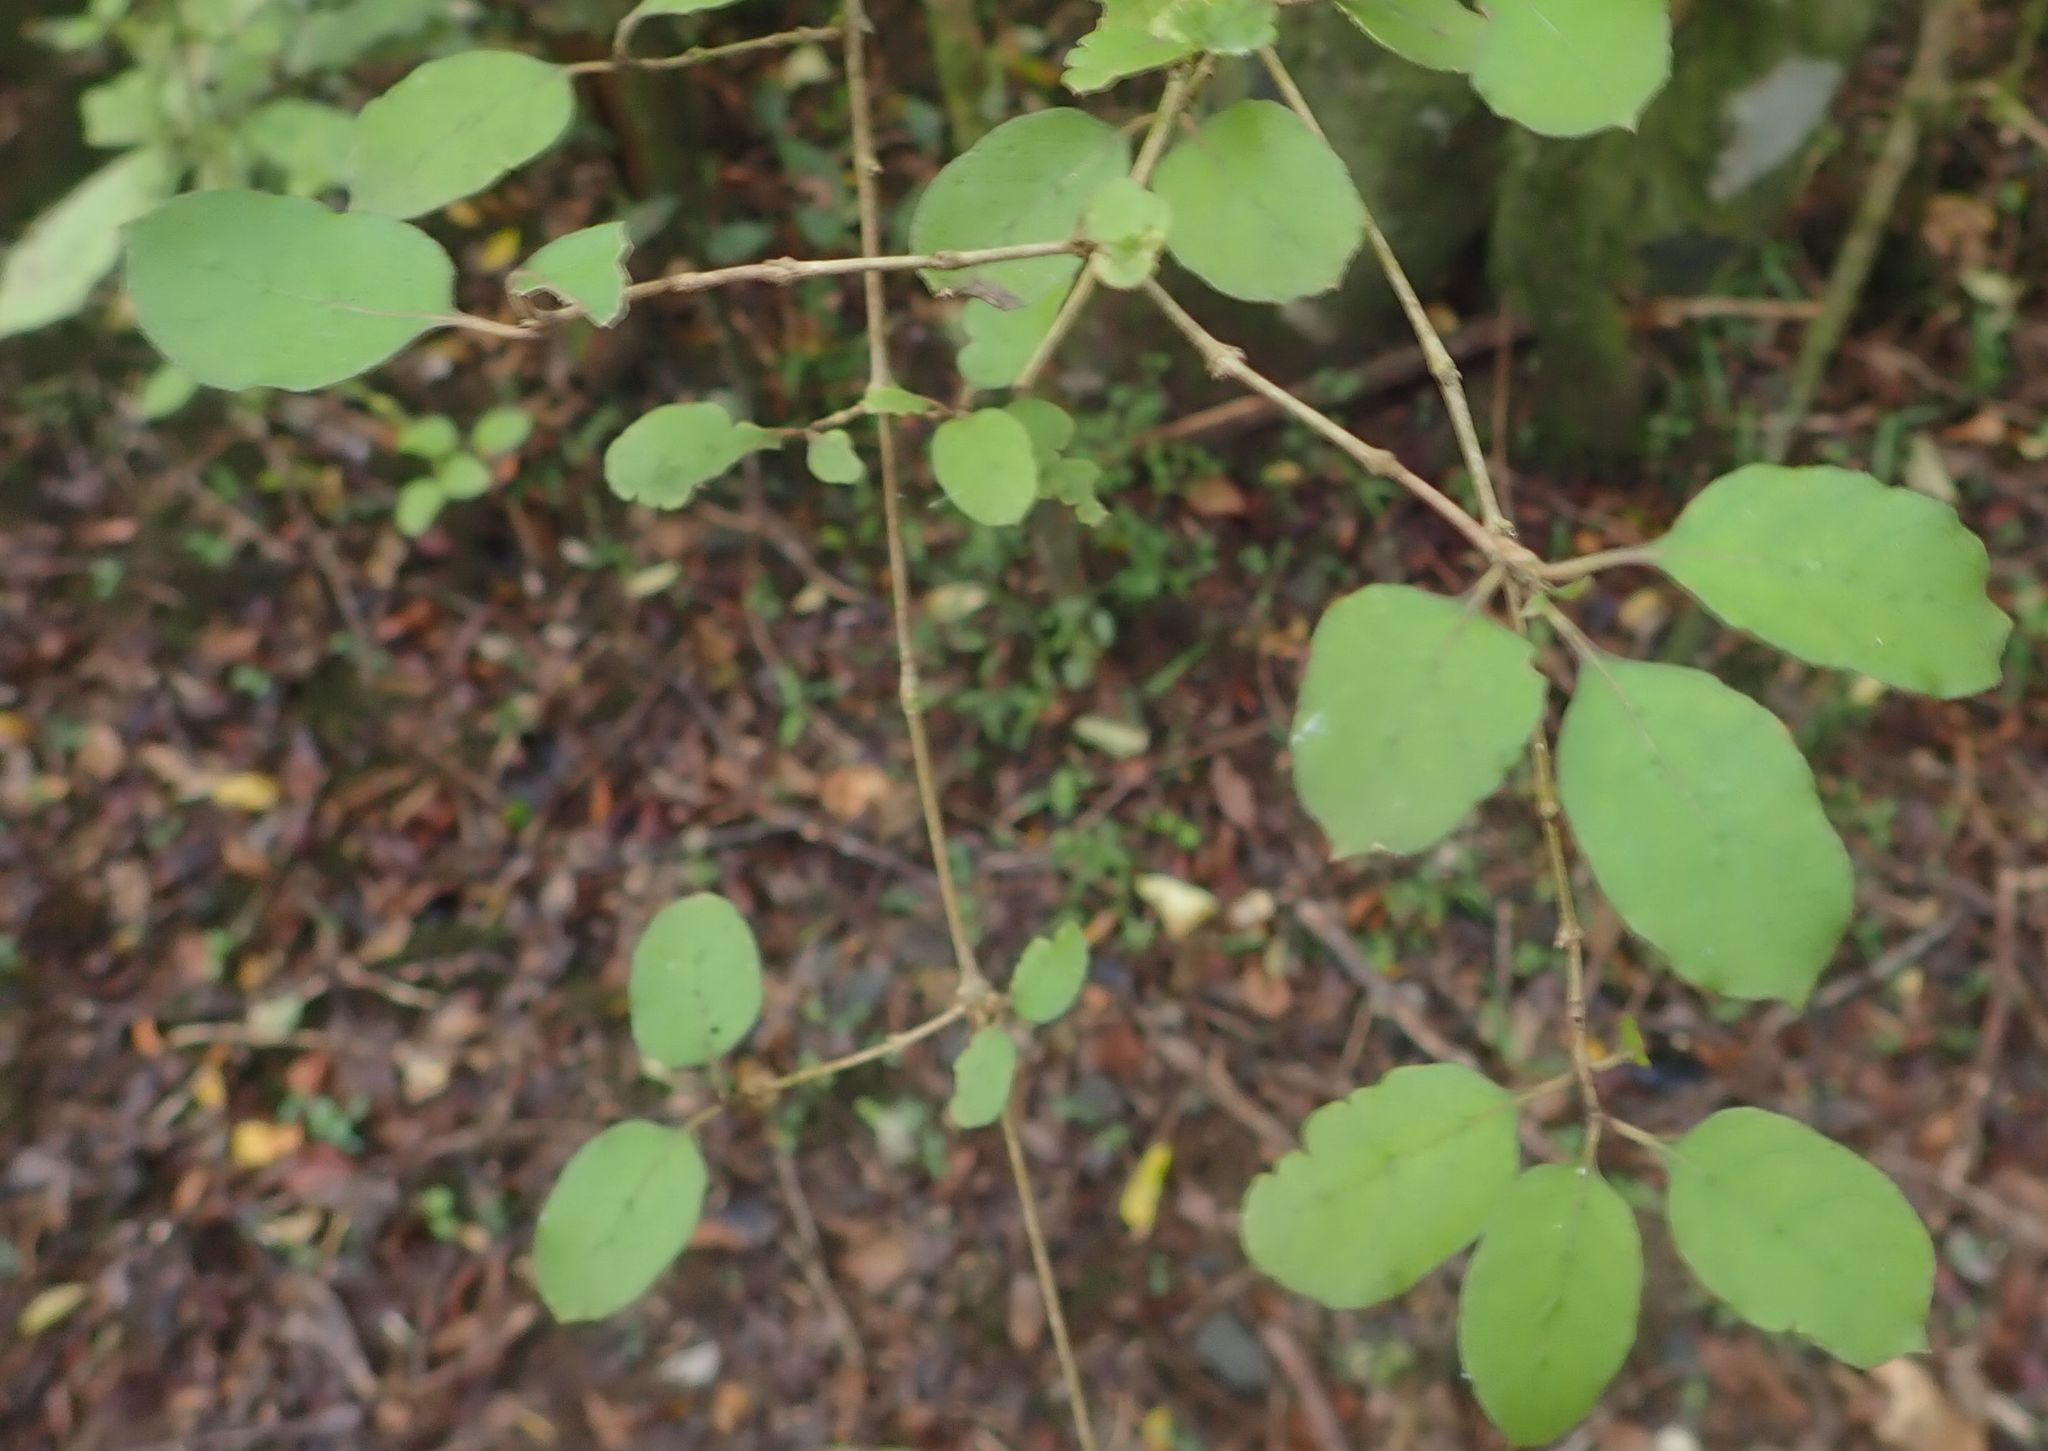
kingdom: Plantae
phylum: Tracheophyta
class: Magnoliopsida
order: Gentianales
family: Rubiaceae
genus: Coprosma
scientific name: Coprosma rotundifolia
